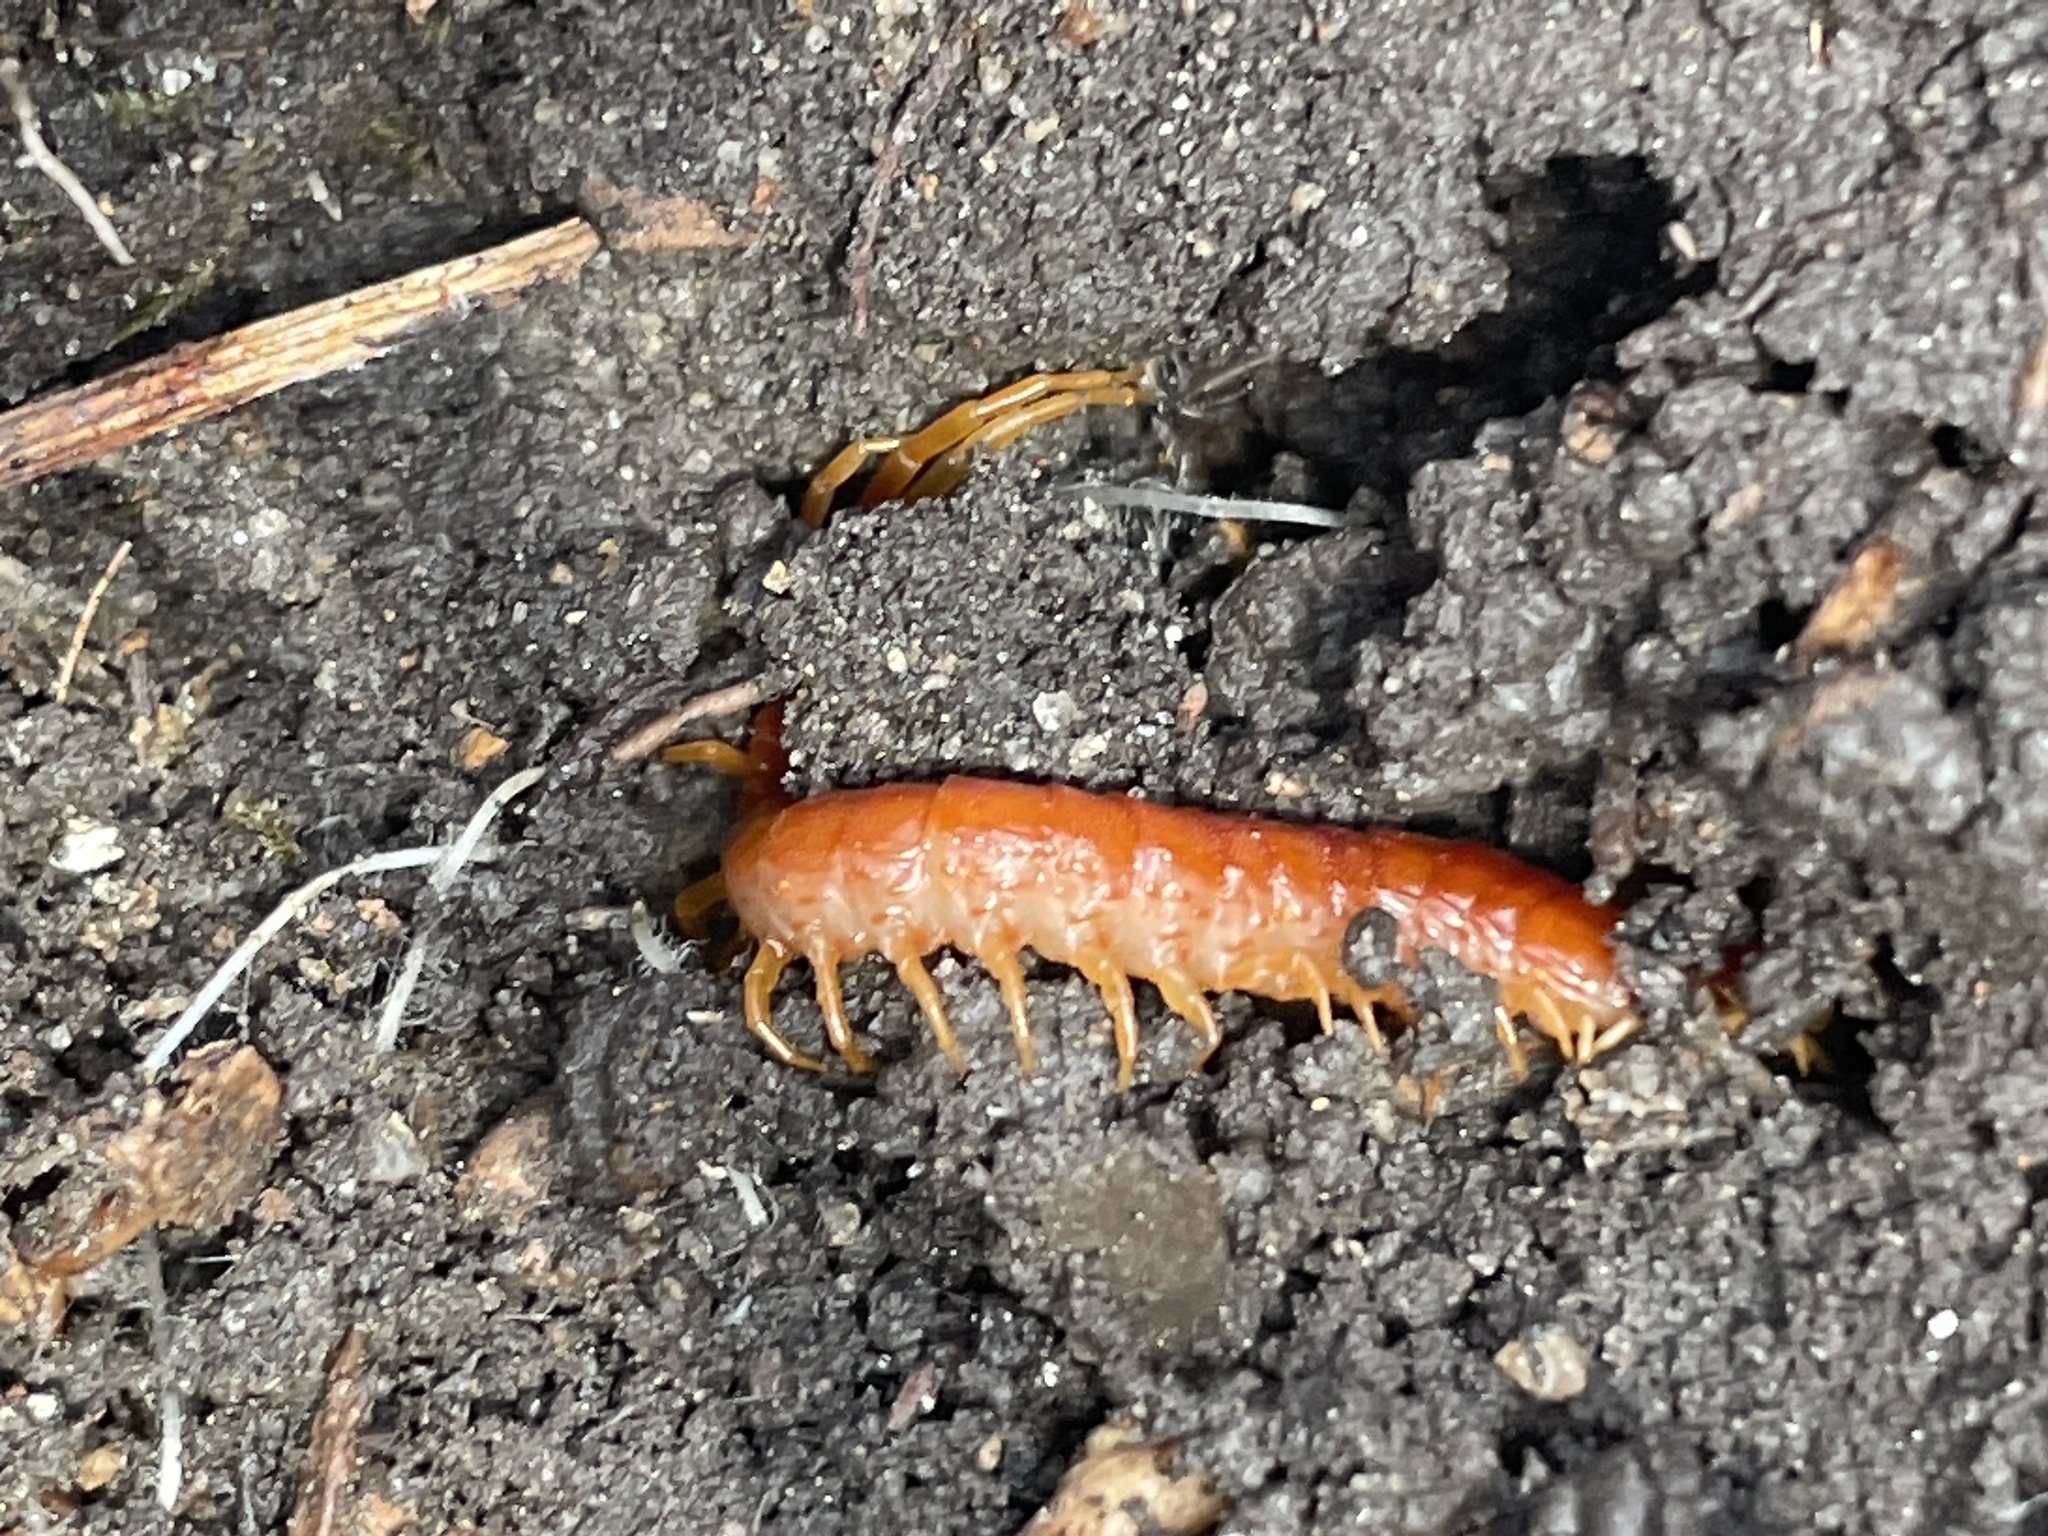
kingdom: Animalia
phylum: Arthropoda
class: Chilopoda
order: Scolopendromorpha
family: Scolopocryptopidae
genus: Scolopocryptops
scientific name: Scolopocryptops sexspinosus
